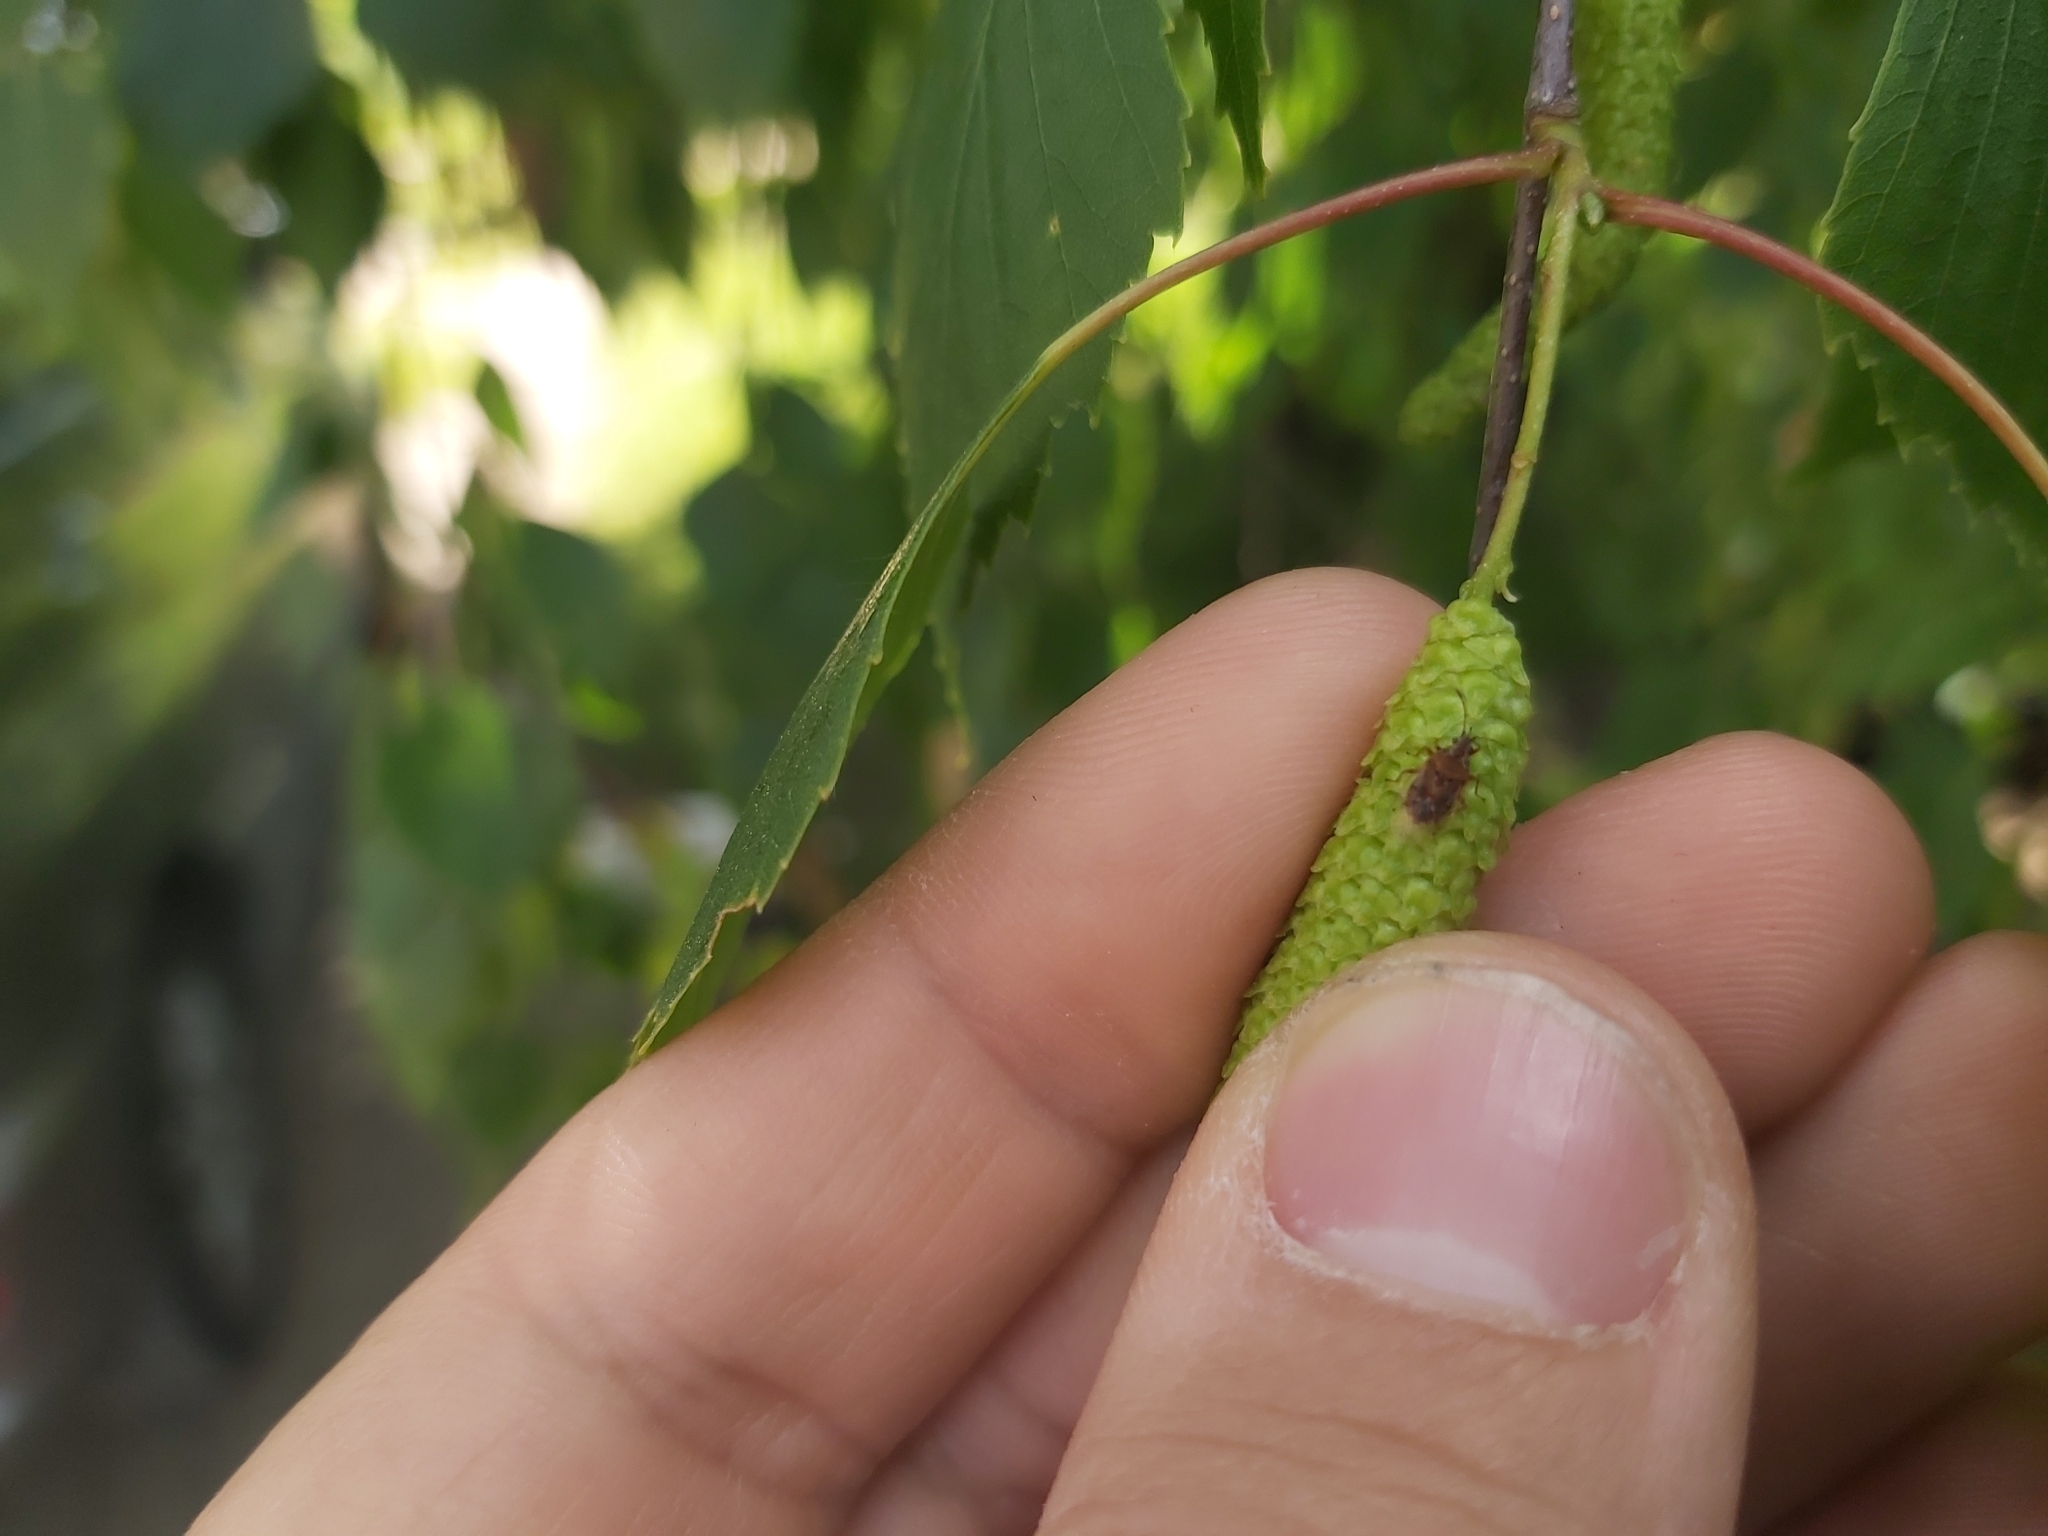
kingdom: Animalia
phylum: Arthropoda
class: Insecta
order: Hemiptera
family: Lygaeidae
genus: Kleidocerys
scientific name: Kleidocerys resedae
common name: Birch catkin bug
